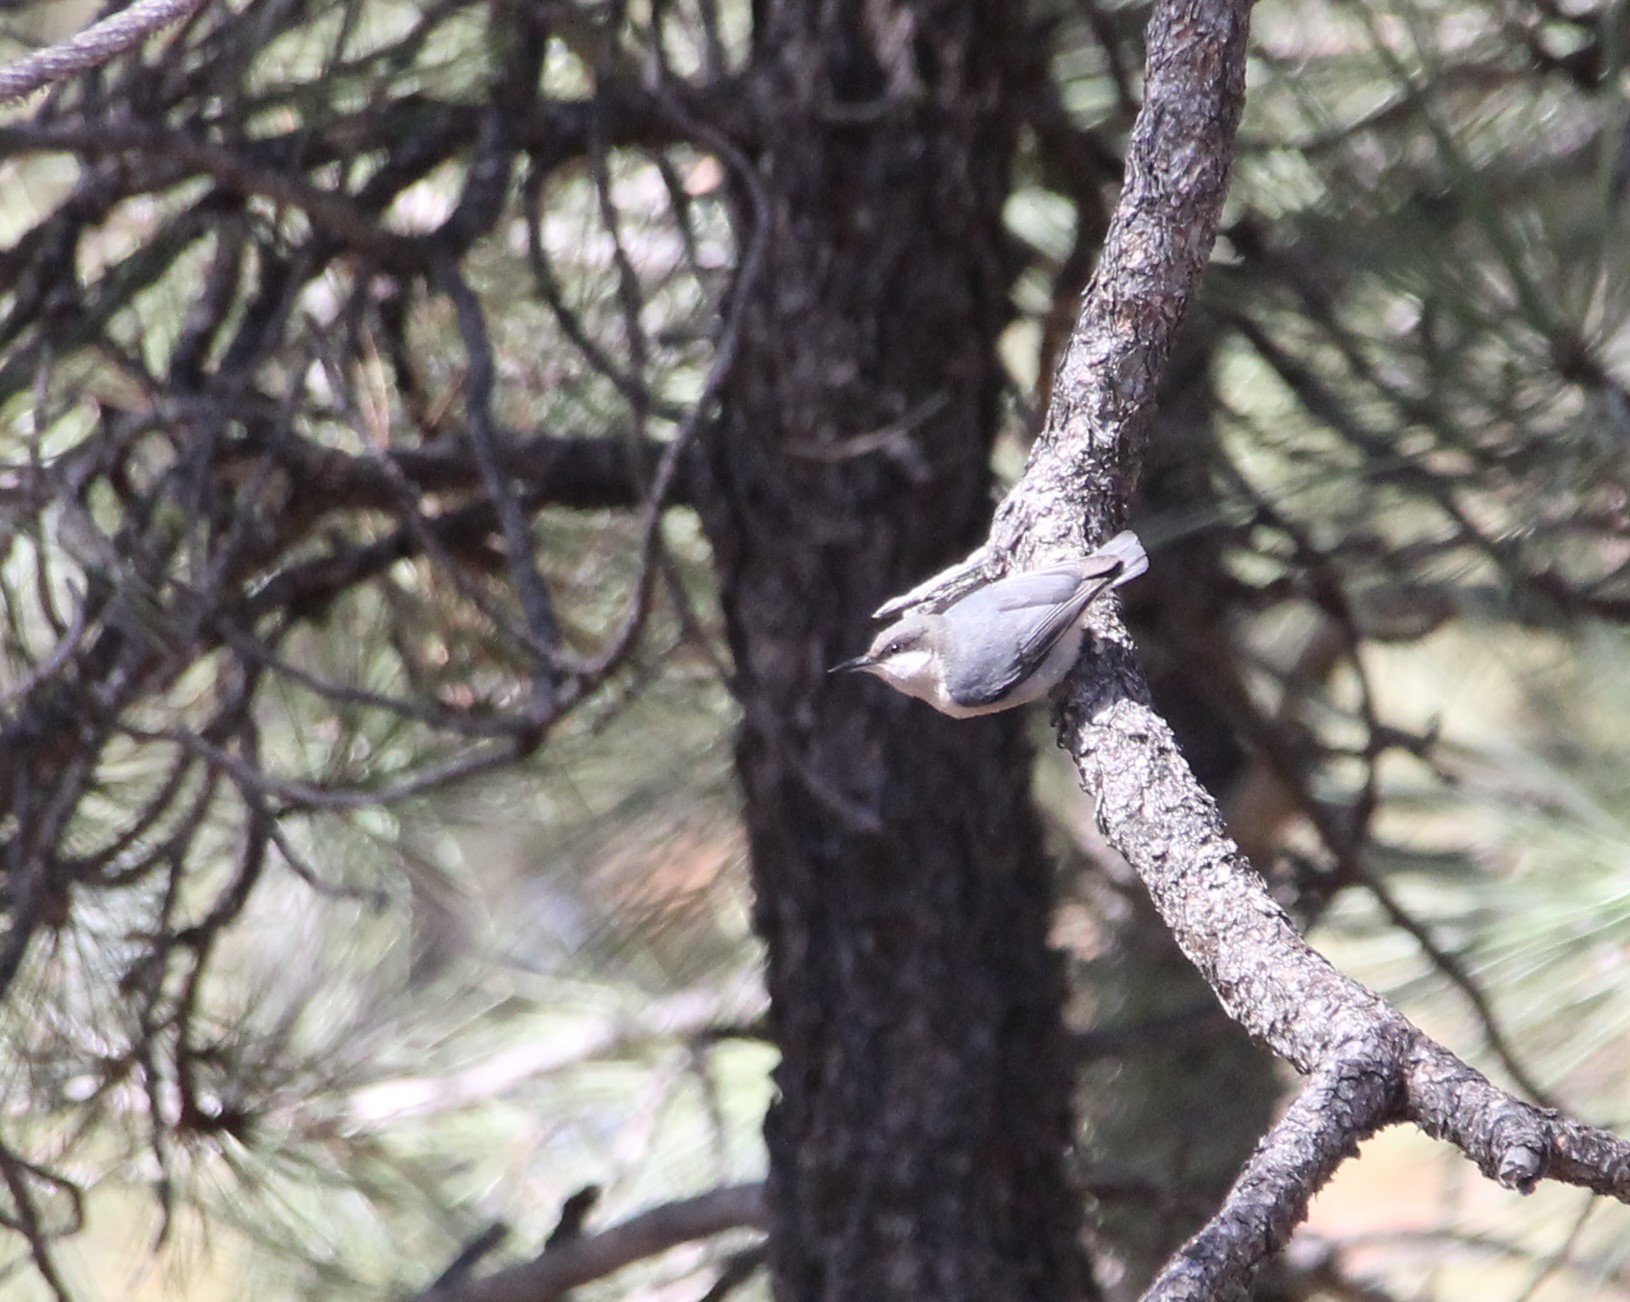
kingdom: Animalia
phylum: Chordata
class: Aves
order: Passeriformes
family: Sittidae
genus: Sitta
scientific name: Sitta pygmaea
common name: Pygmy nuthatch
